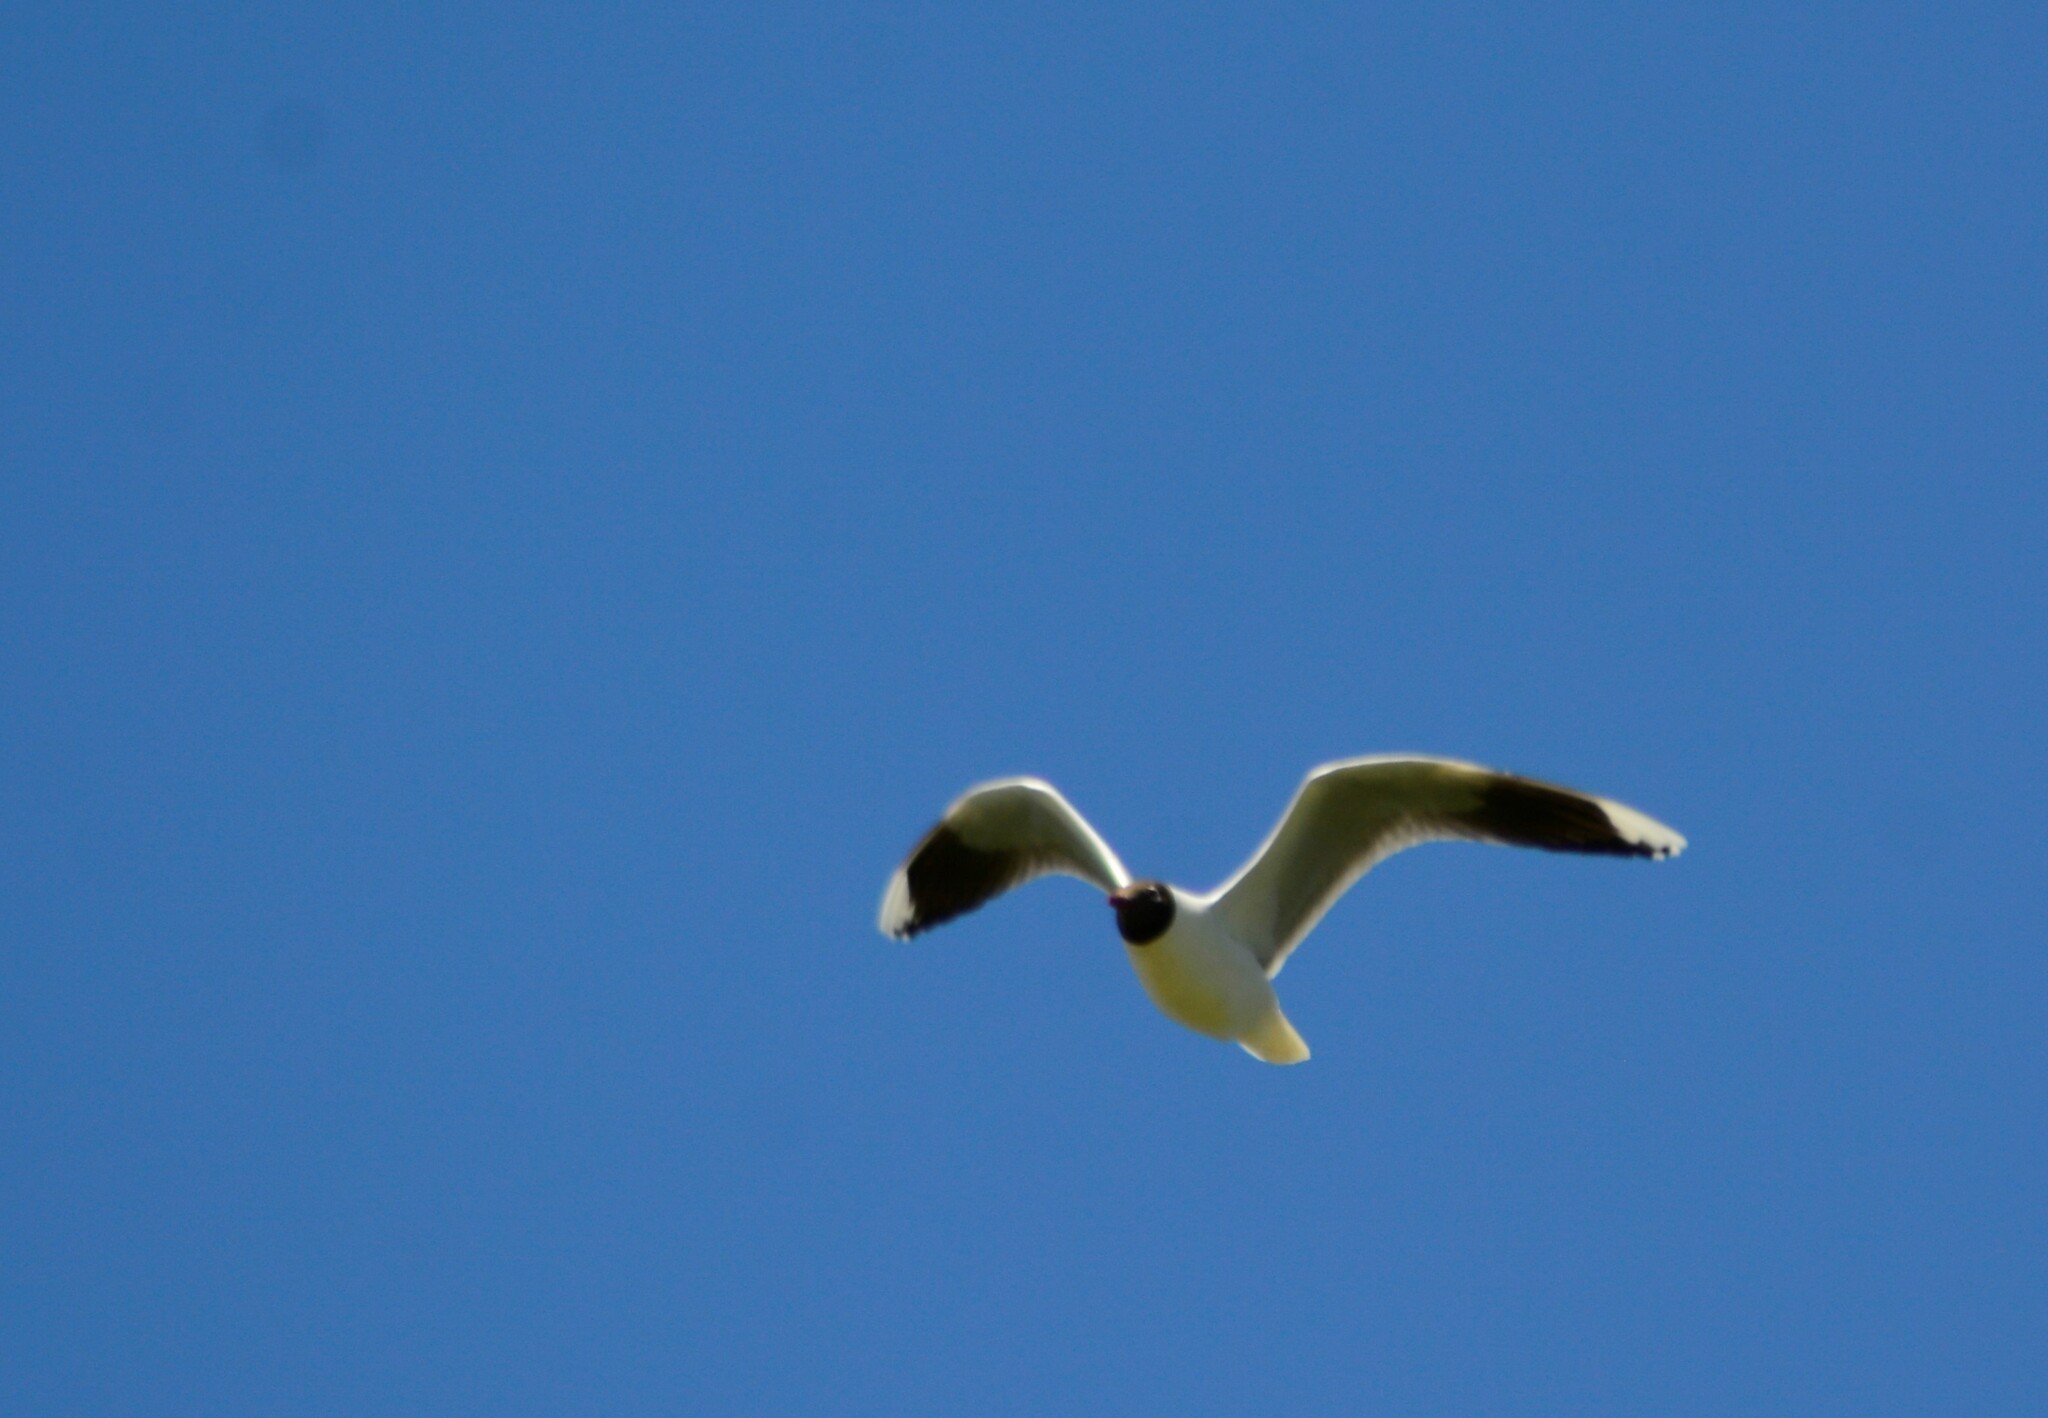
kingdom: Animalia
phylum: Chordata
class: Aves
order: Charadriiformes
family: Laridae
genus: Chroicocephalus
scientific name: Chroicocephalus maculipennis
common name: Brown-hooded gull
